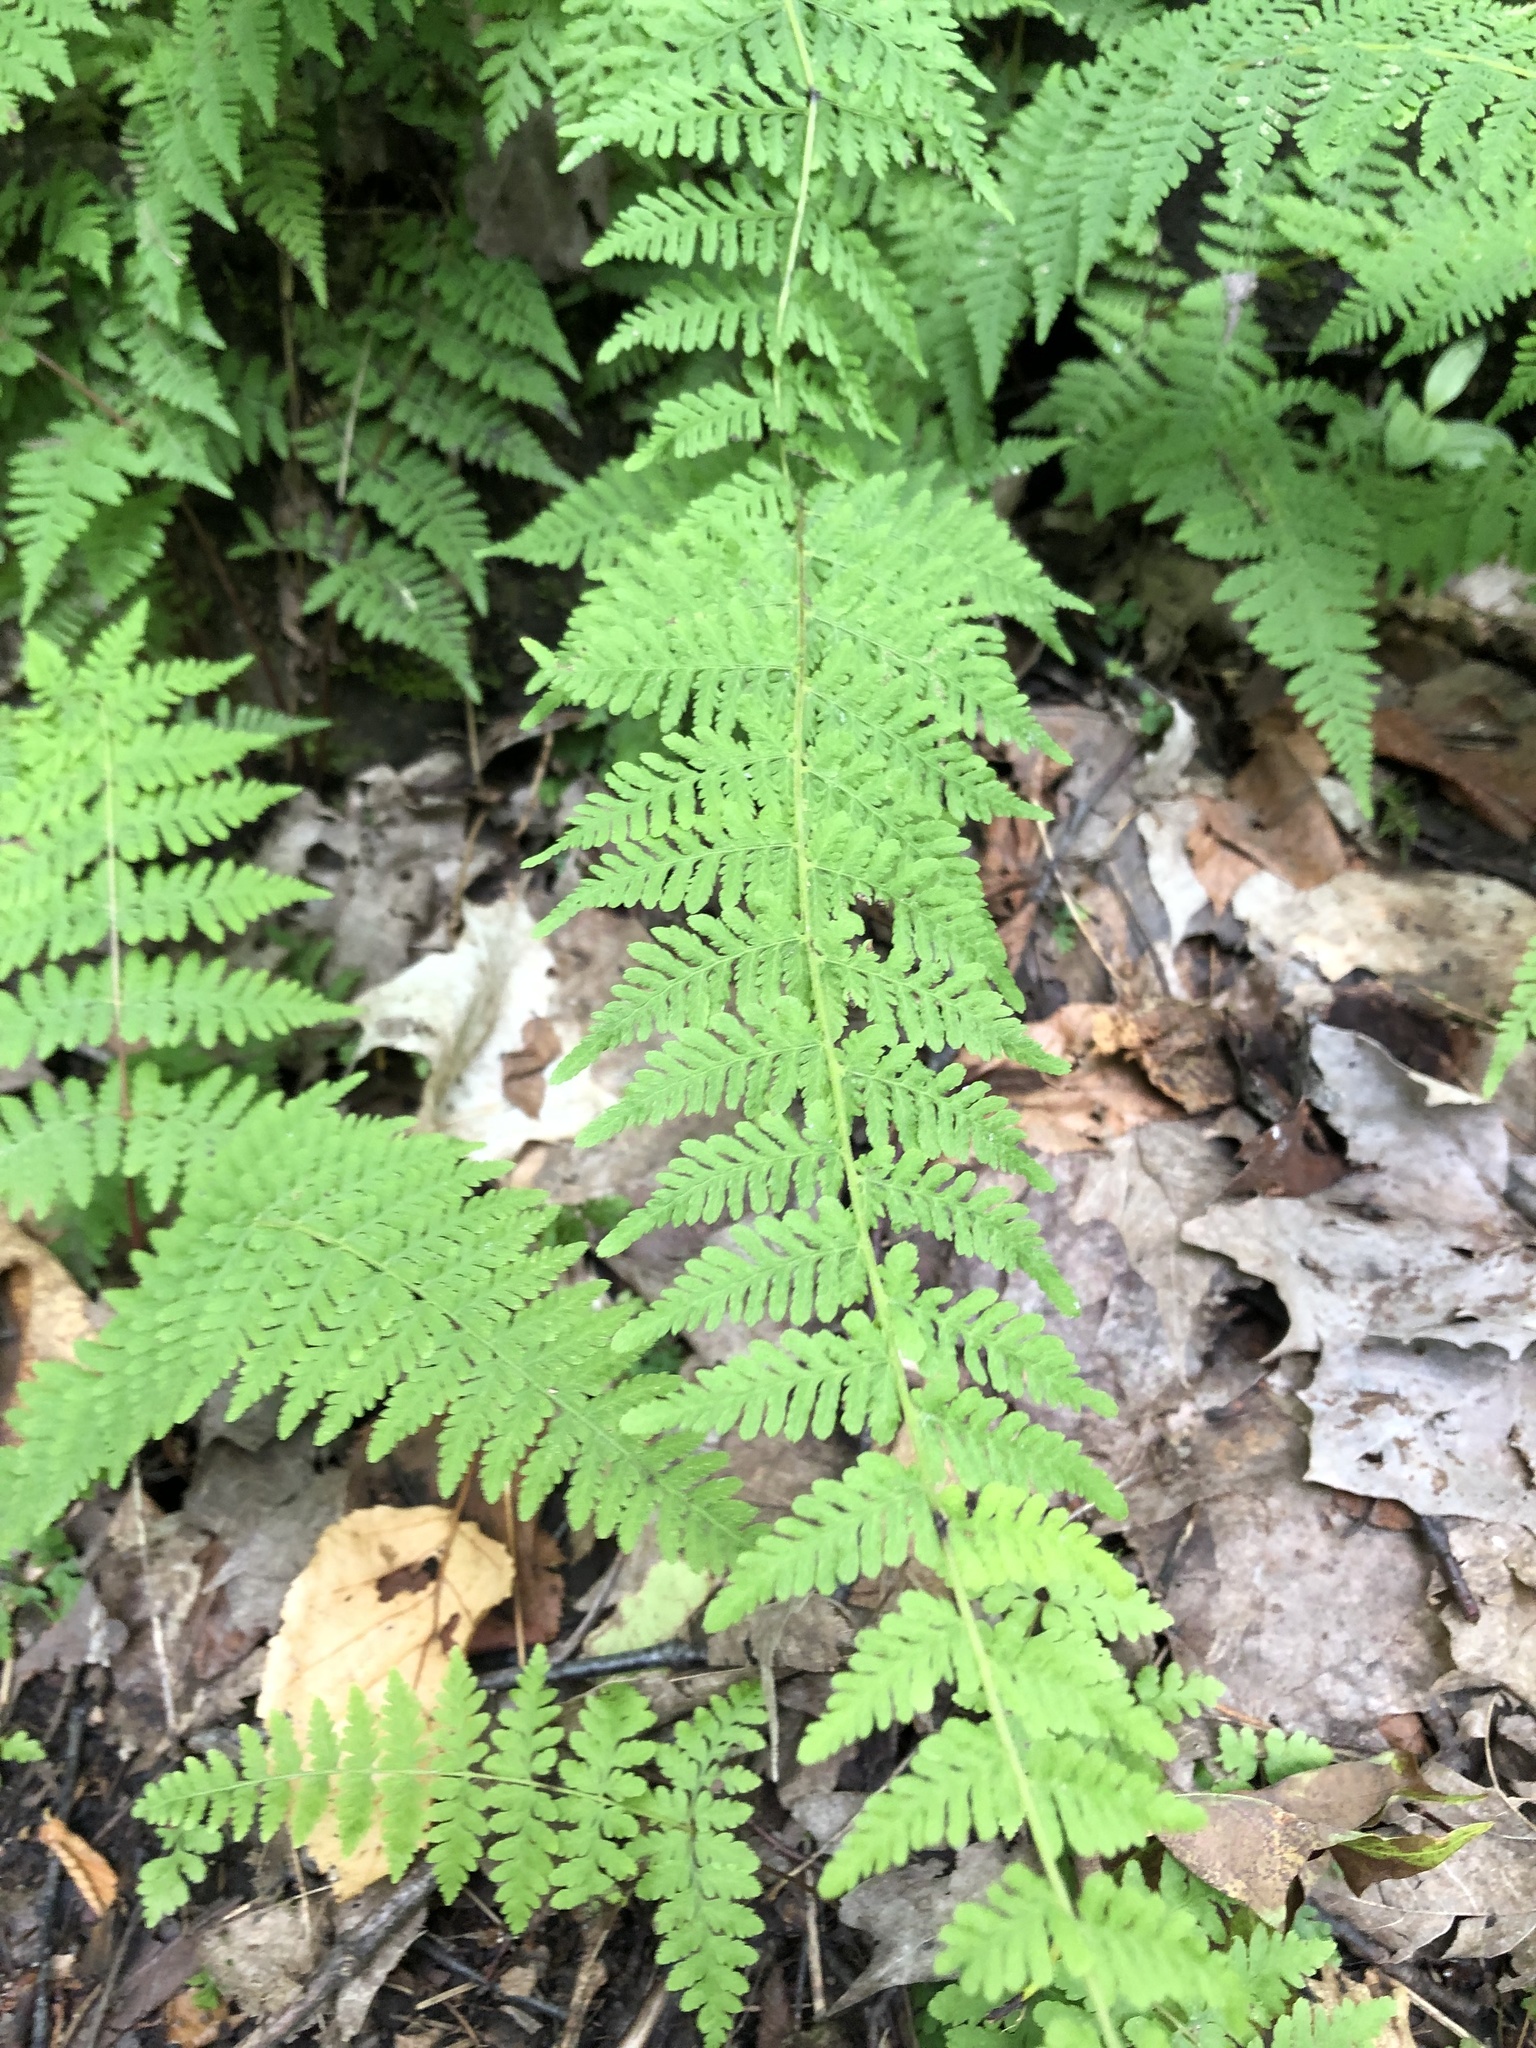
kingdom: Plantae
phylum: Tracheophyta
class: Polypodiopsida
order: Polypodiales
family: Cystopteridaceae
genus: Cystopteris
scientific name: Cystopteris bulbifera
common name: Bulblet bladder fern
